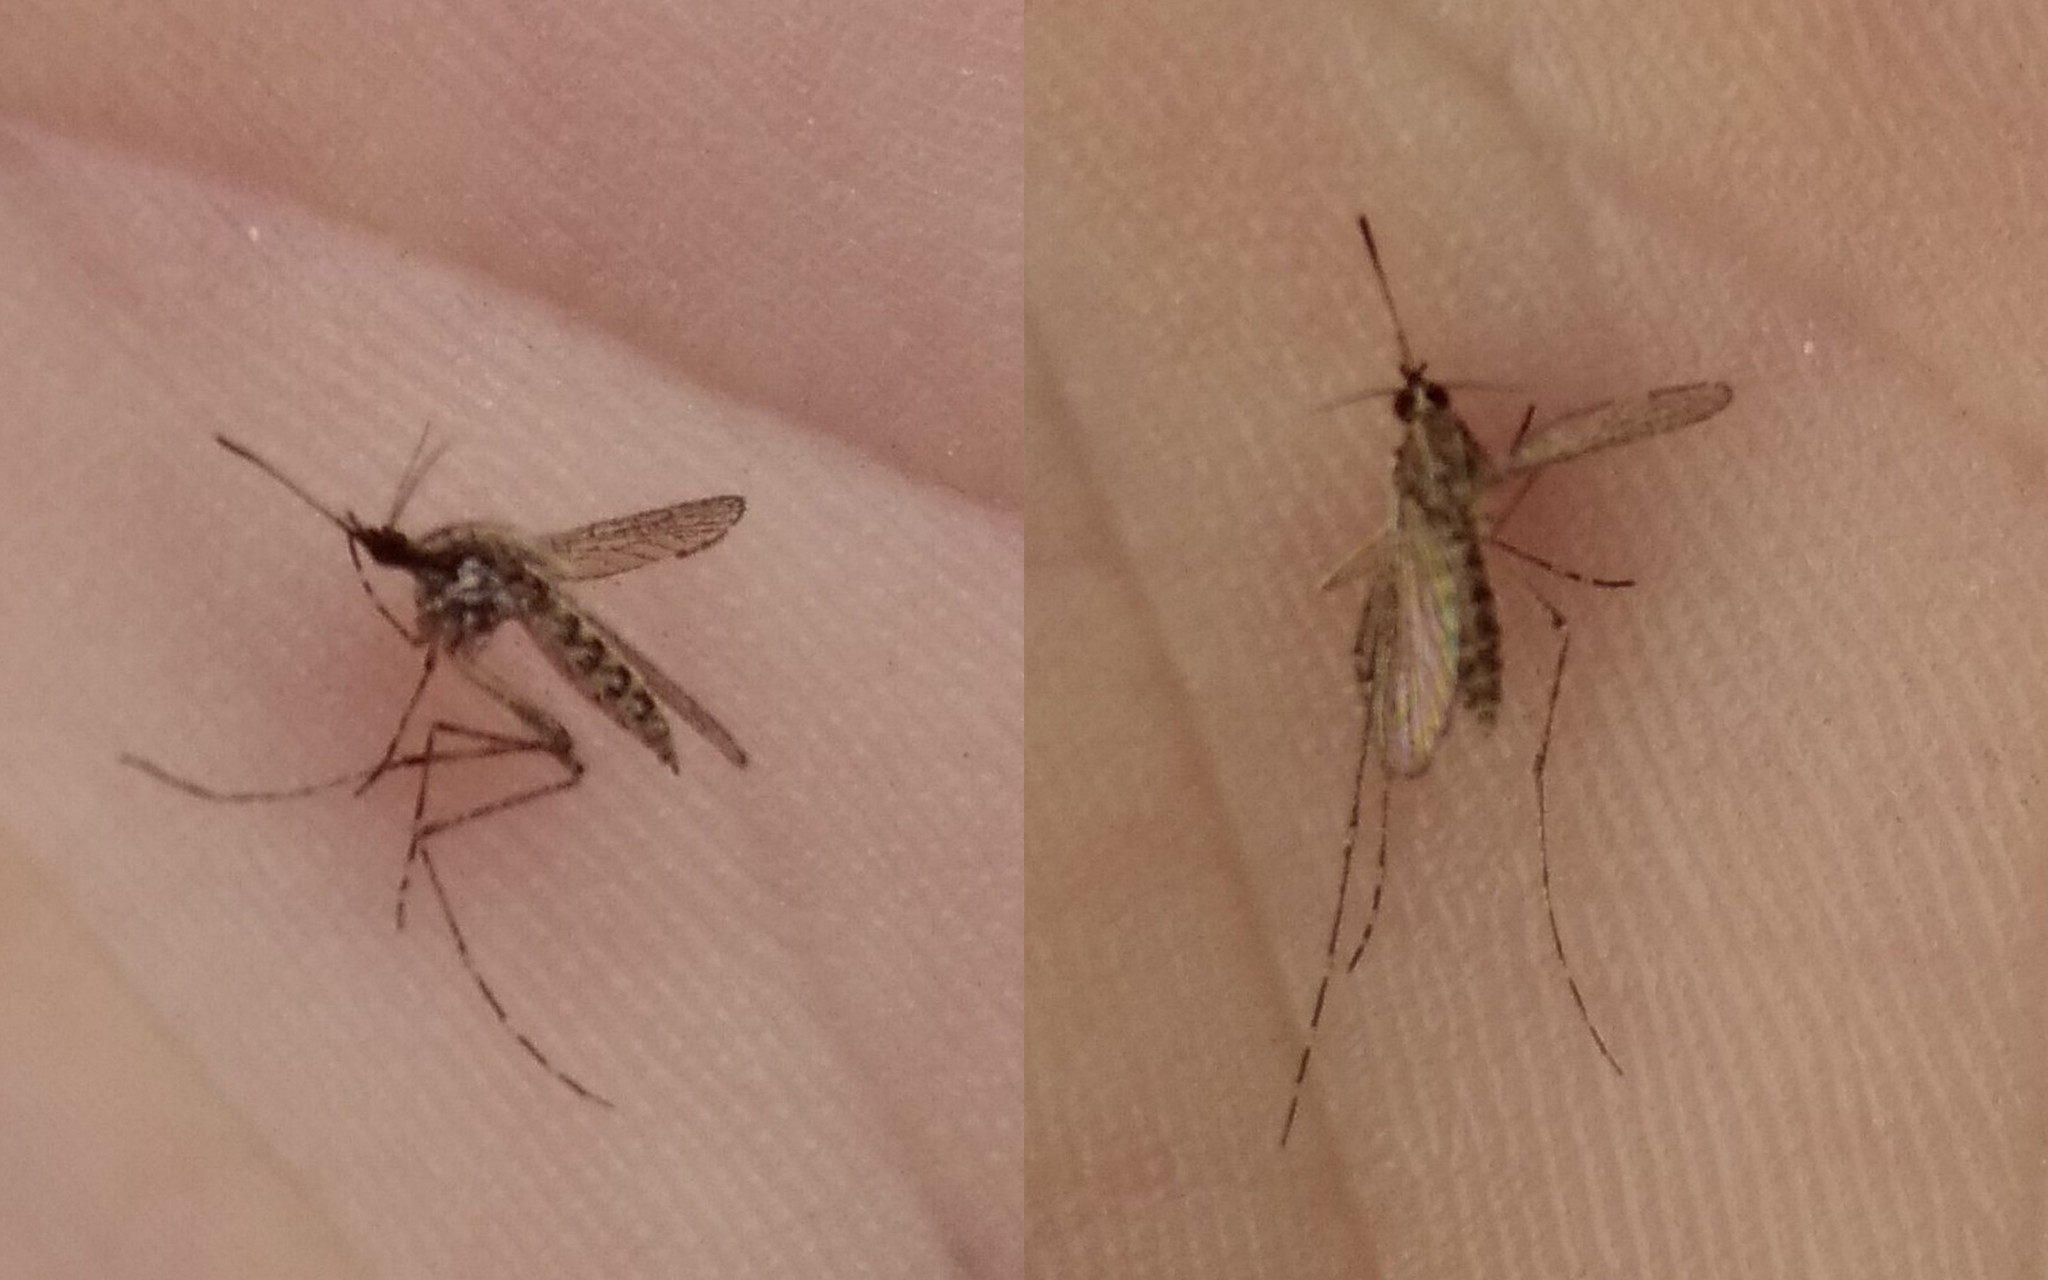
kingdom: Animalia
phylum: Arthropoda
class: Insecta
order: Diptera
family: Culicidae
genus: Aedes
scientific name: Aedes caspius
